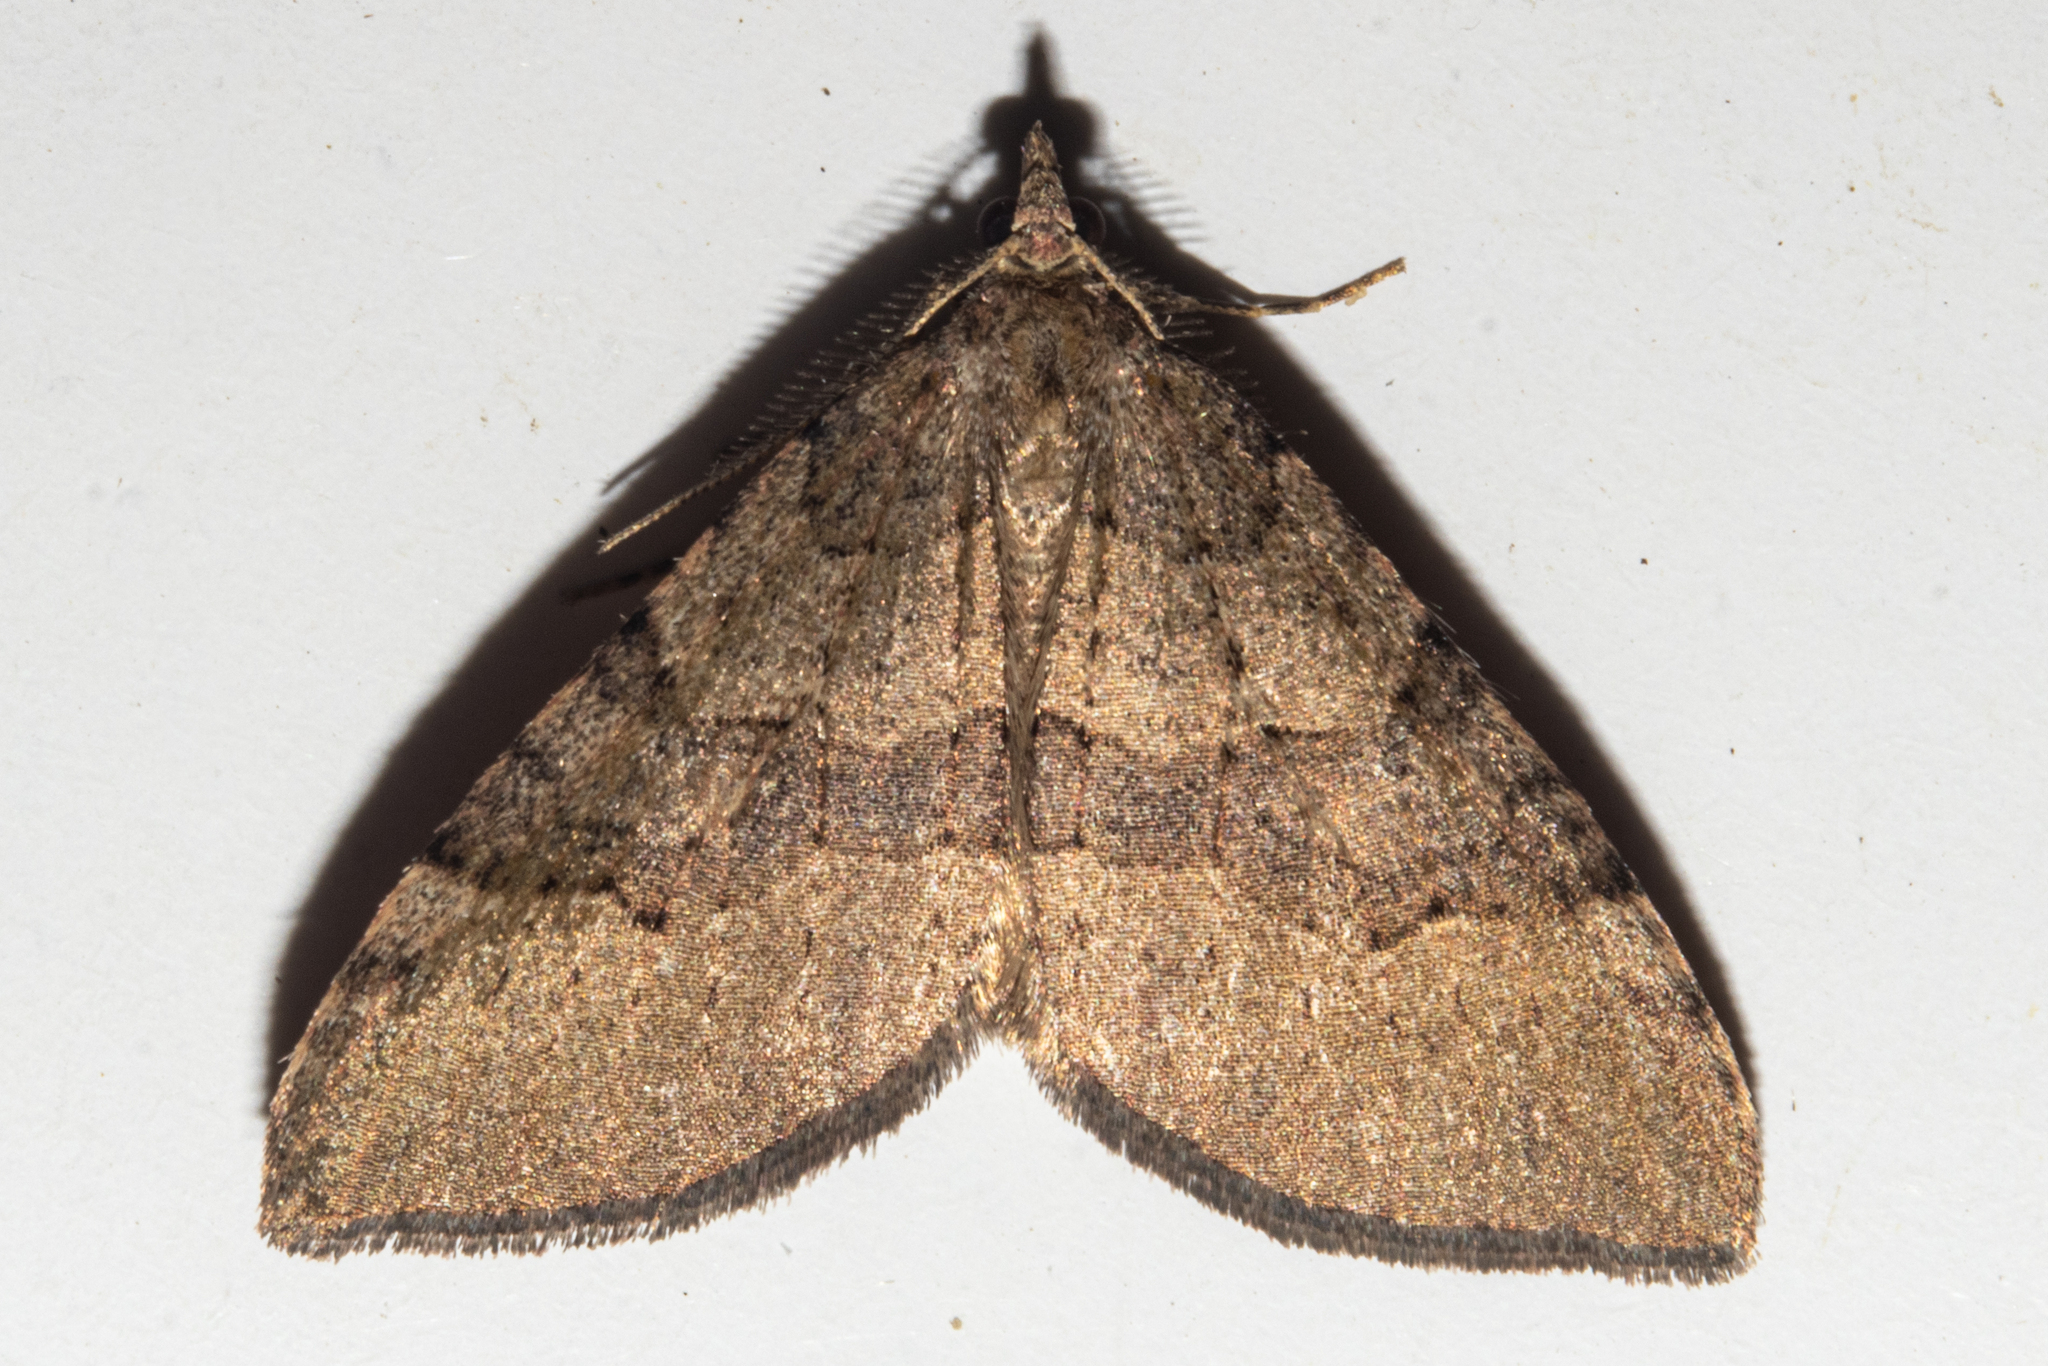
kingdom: Animalia
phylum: Arthropoda
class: Insecta
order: Lepidoptera
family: Geometridae
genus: Epyaxa
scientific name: Epyaxa rosearia
